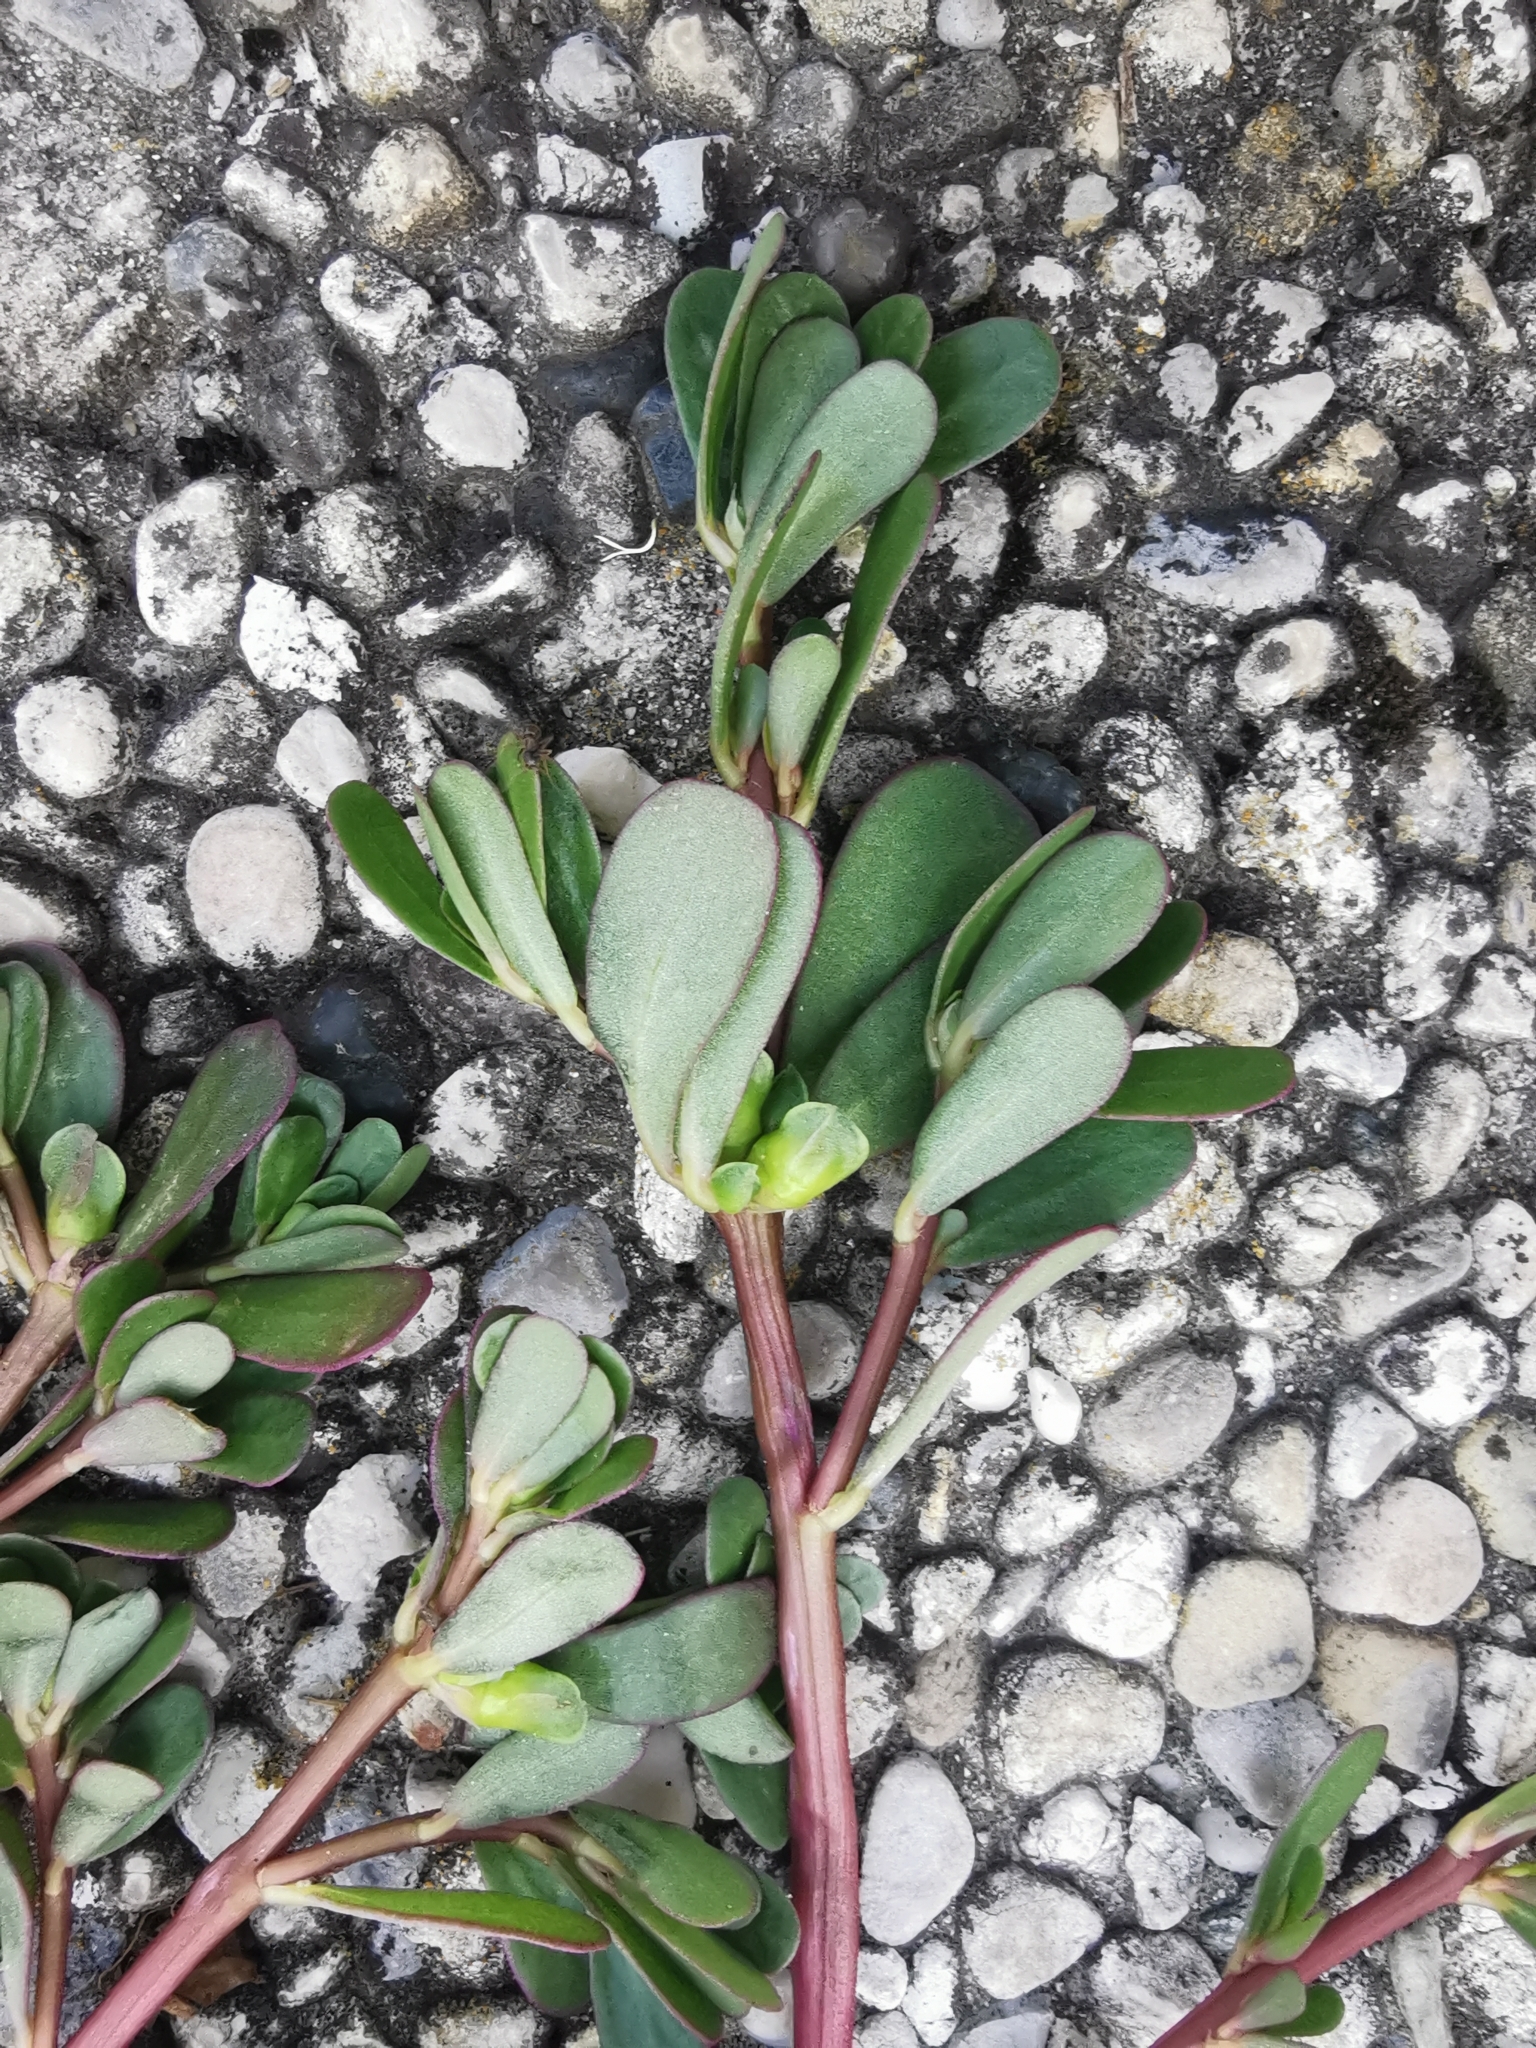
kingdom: Plantae
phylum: Tracheophyta
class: Magnoliopsida
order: Caryophyllales
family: Portulacaceae
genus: Portulaca
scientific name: Portulaca oleracea
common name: Common purslane
